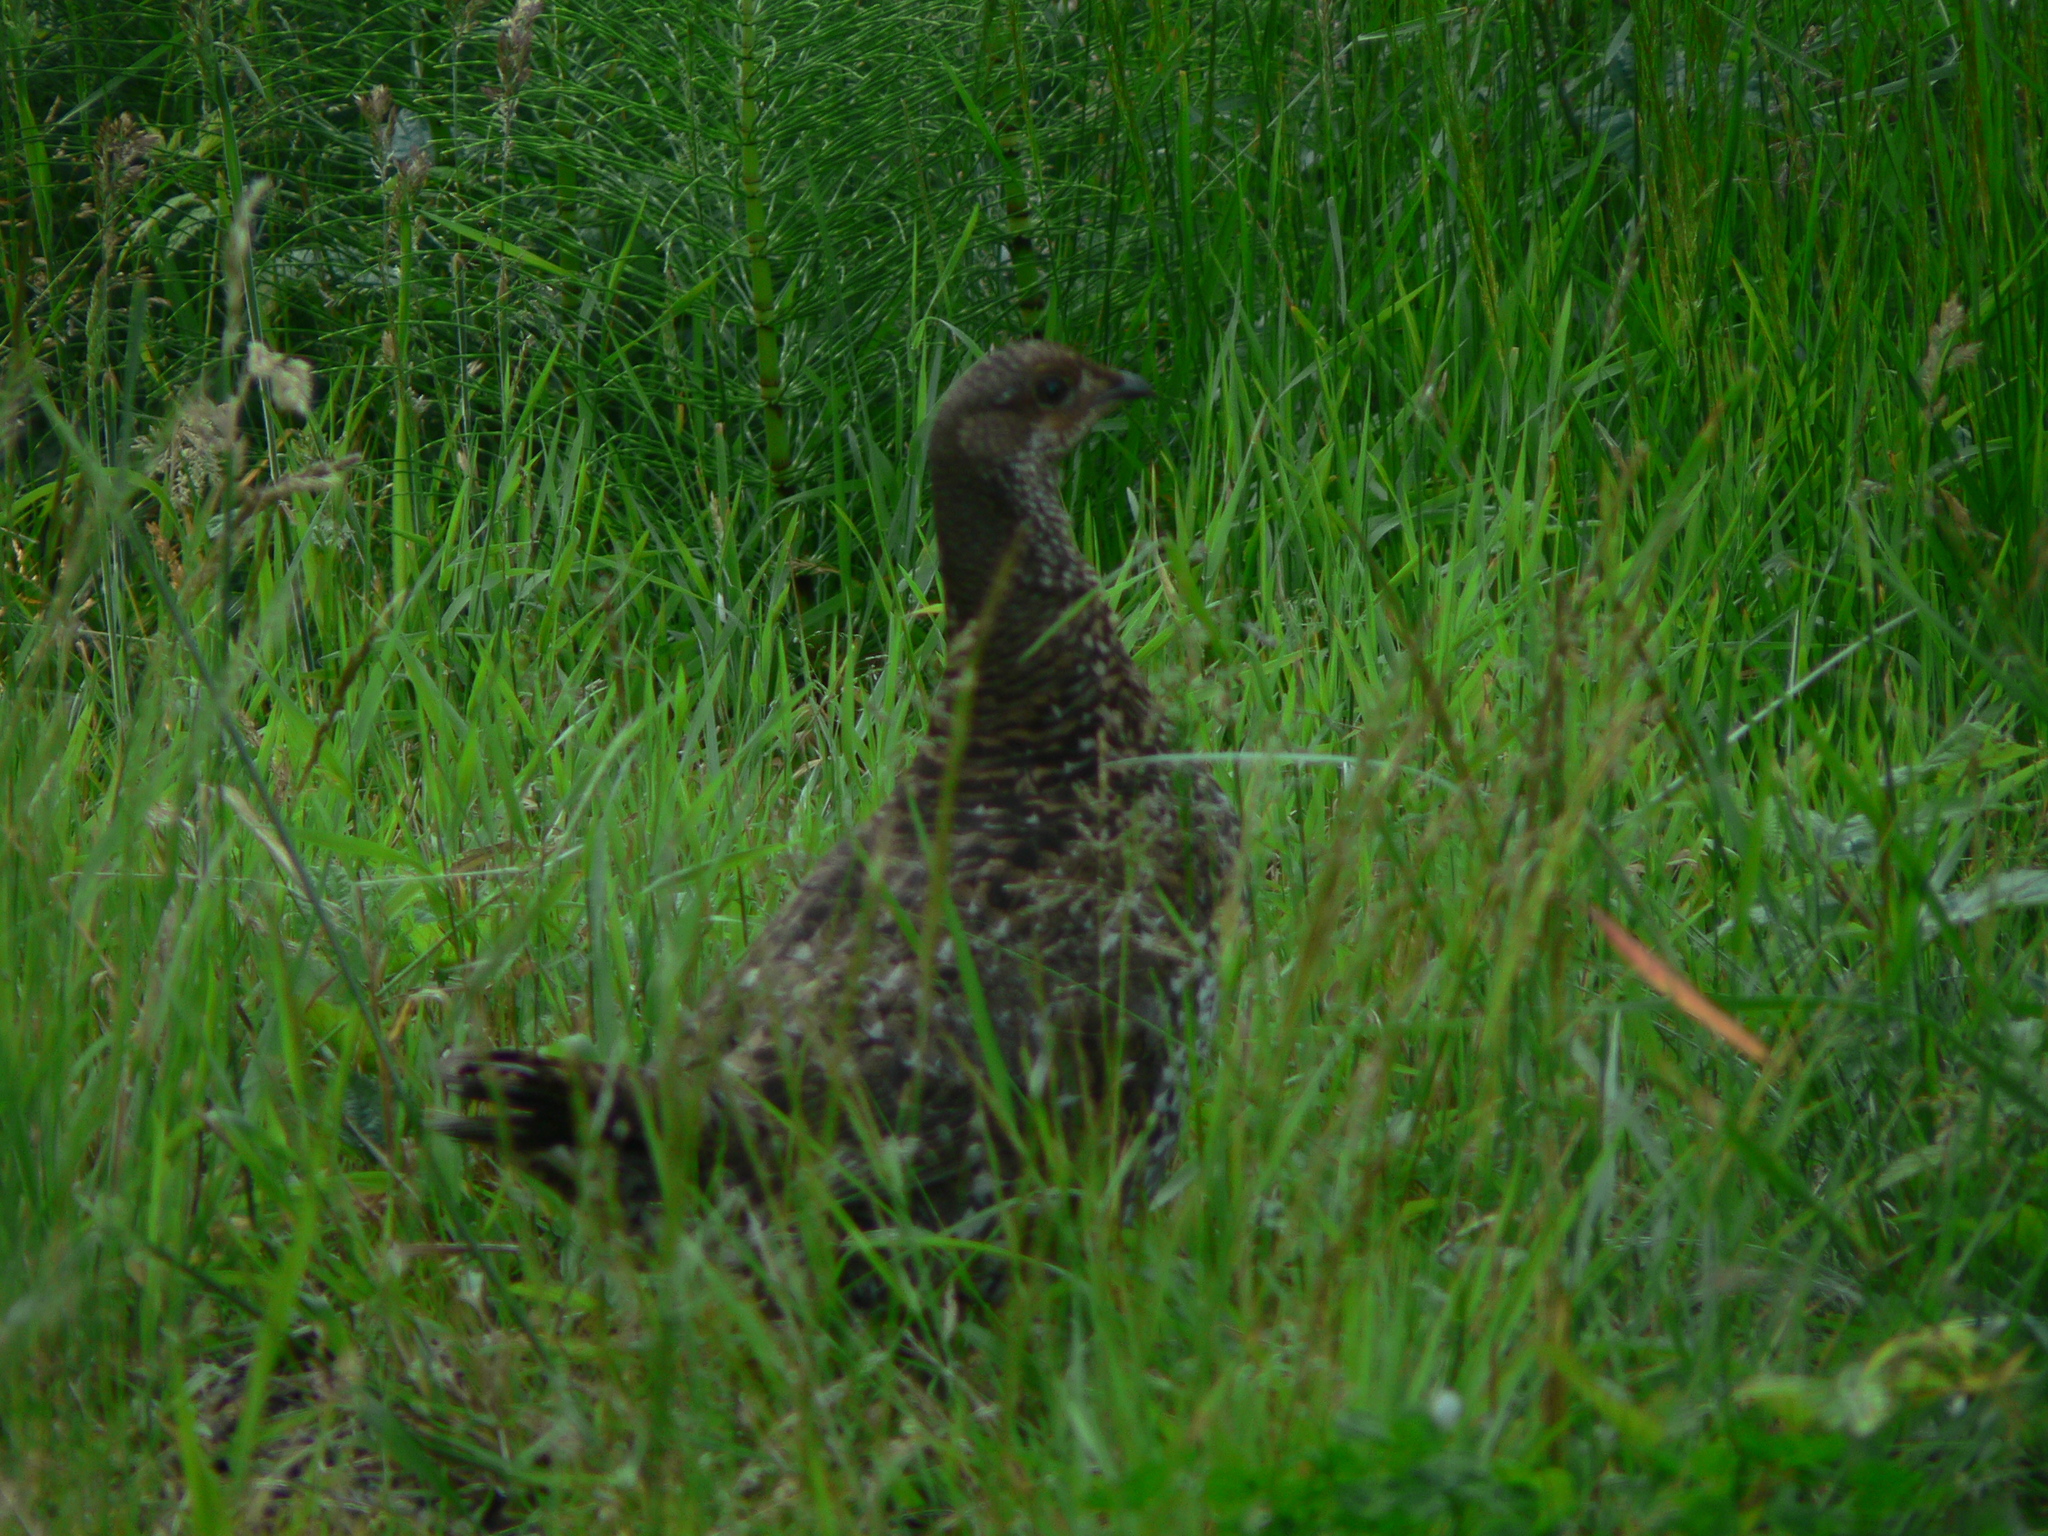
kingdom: Animalia
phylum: Chordata
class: Aves
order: Galliformes
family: Phasianidae
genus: Dendragapus
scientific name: Dendragapus fuliginosus
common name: Sooty grouse
